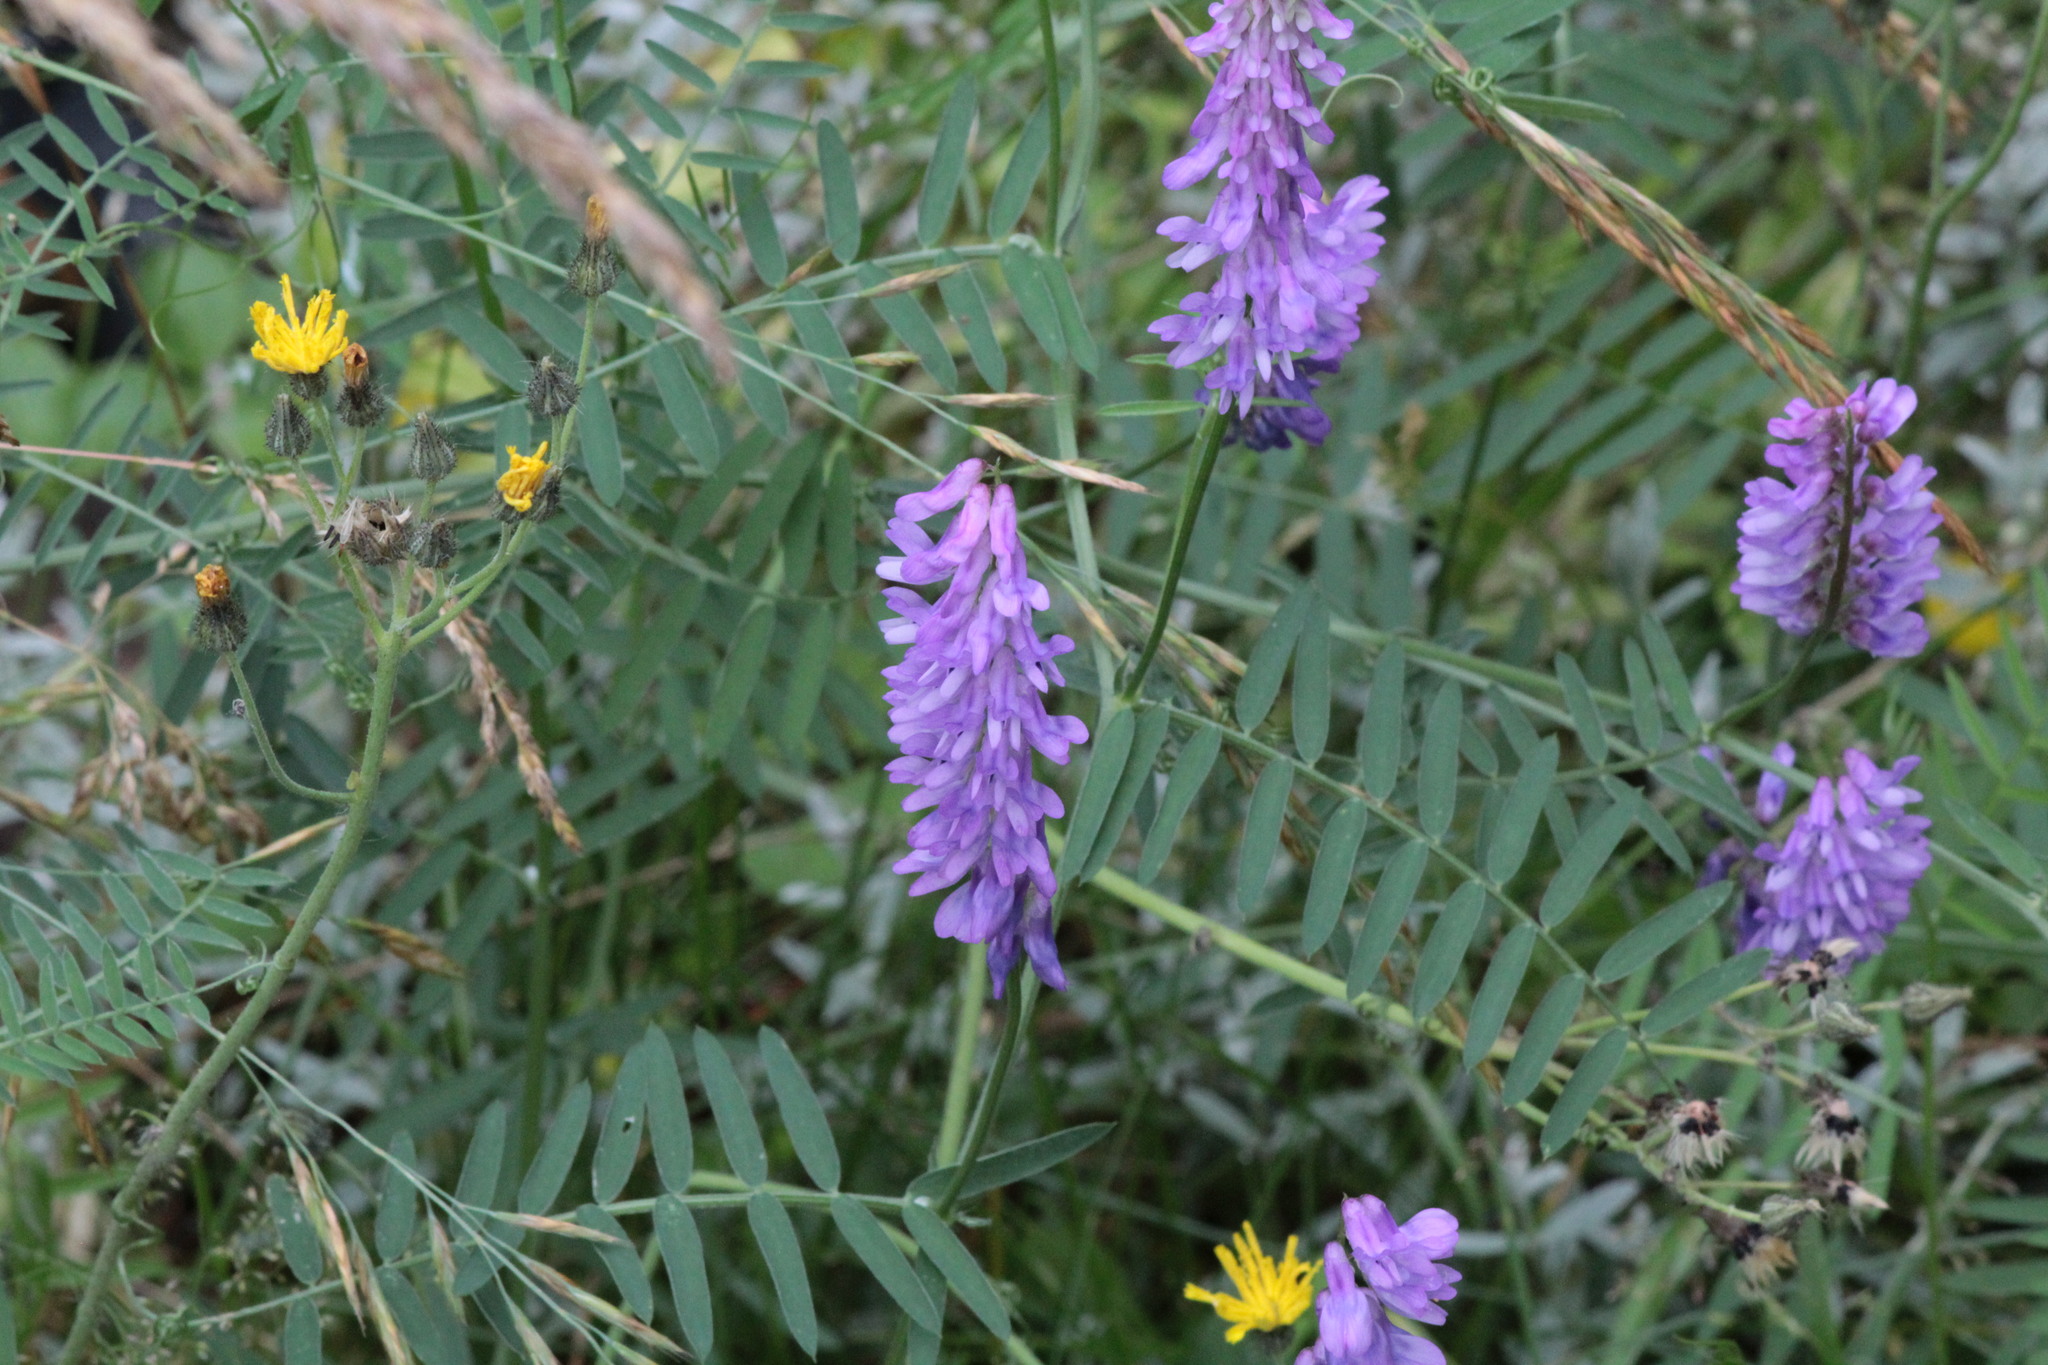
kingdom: Plantae
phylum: Tracheophyta
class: Magnoliopsida
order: Fabales
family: Fabaceae
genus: Vicia
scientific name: Vicia cracca
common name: Bird vetch
